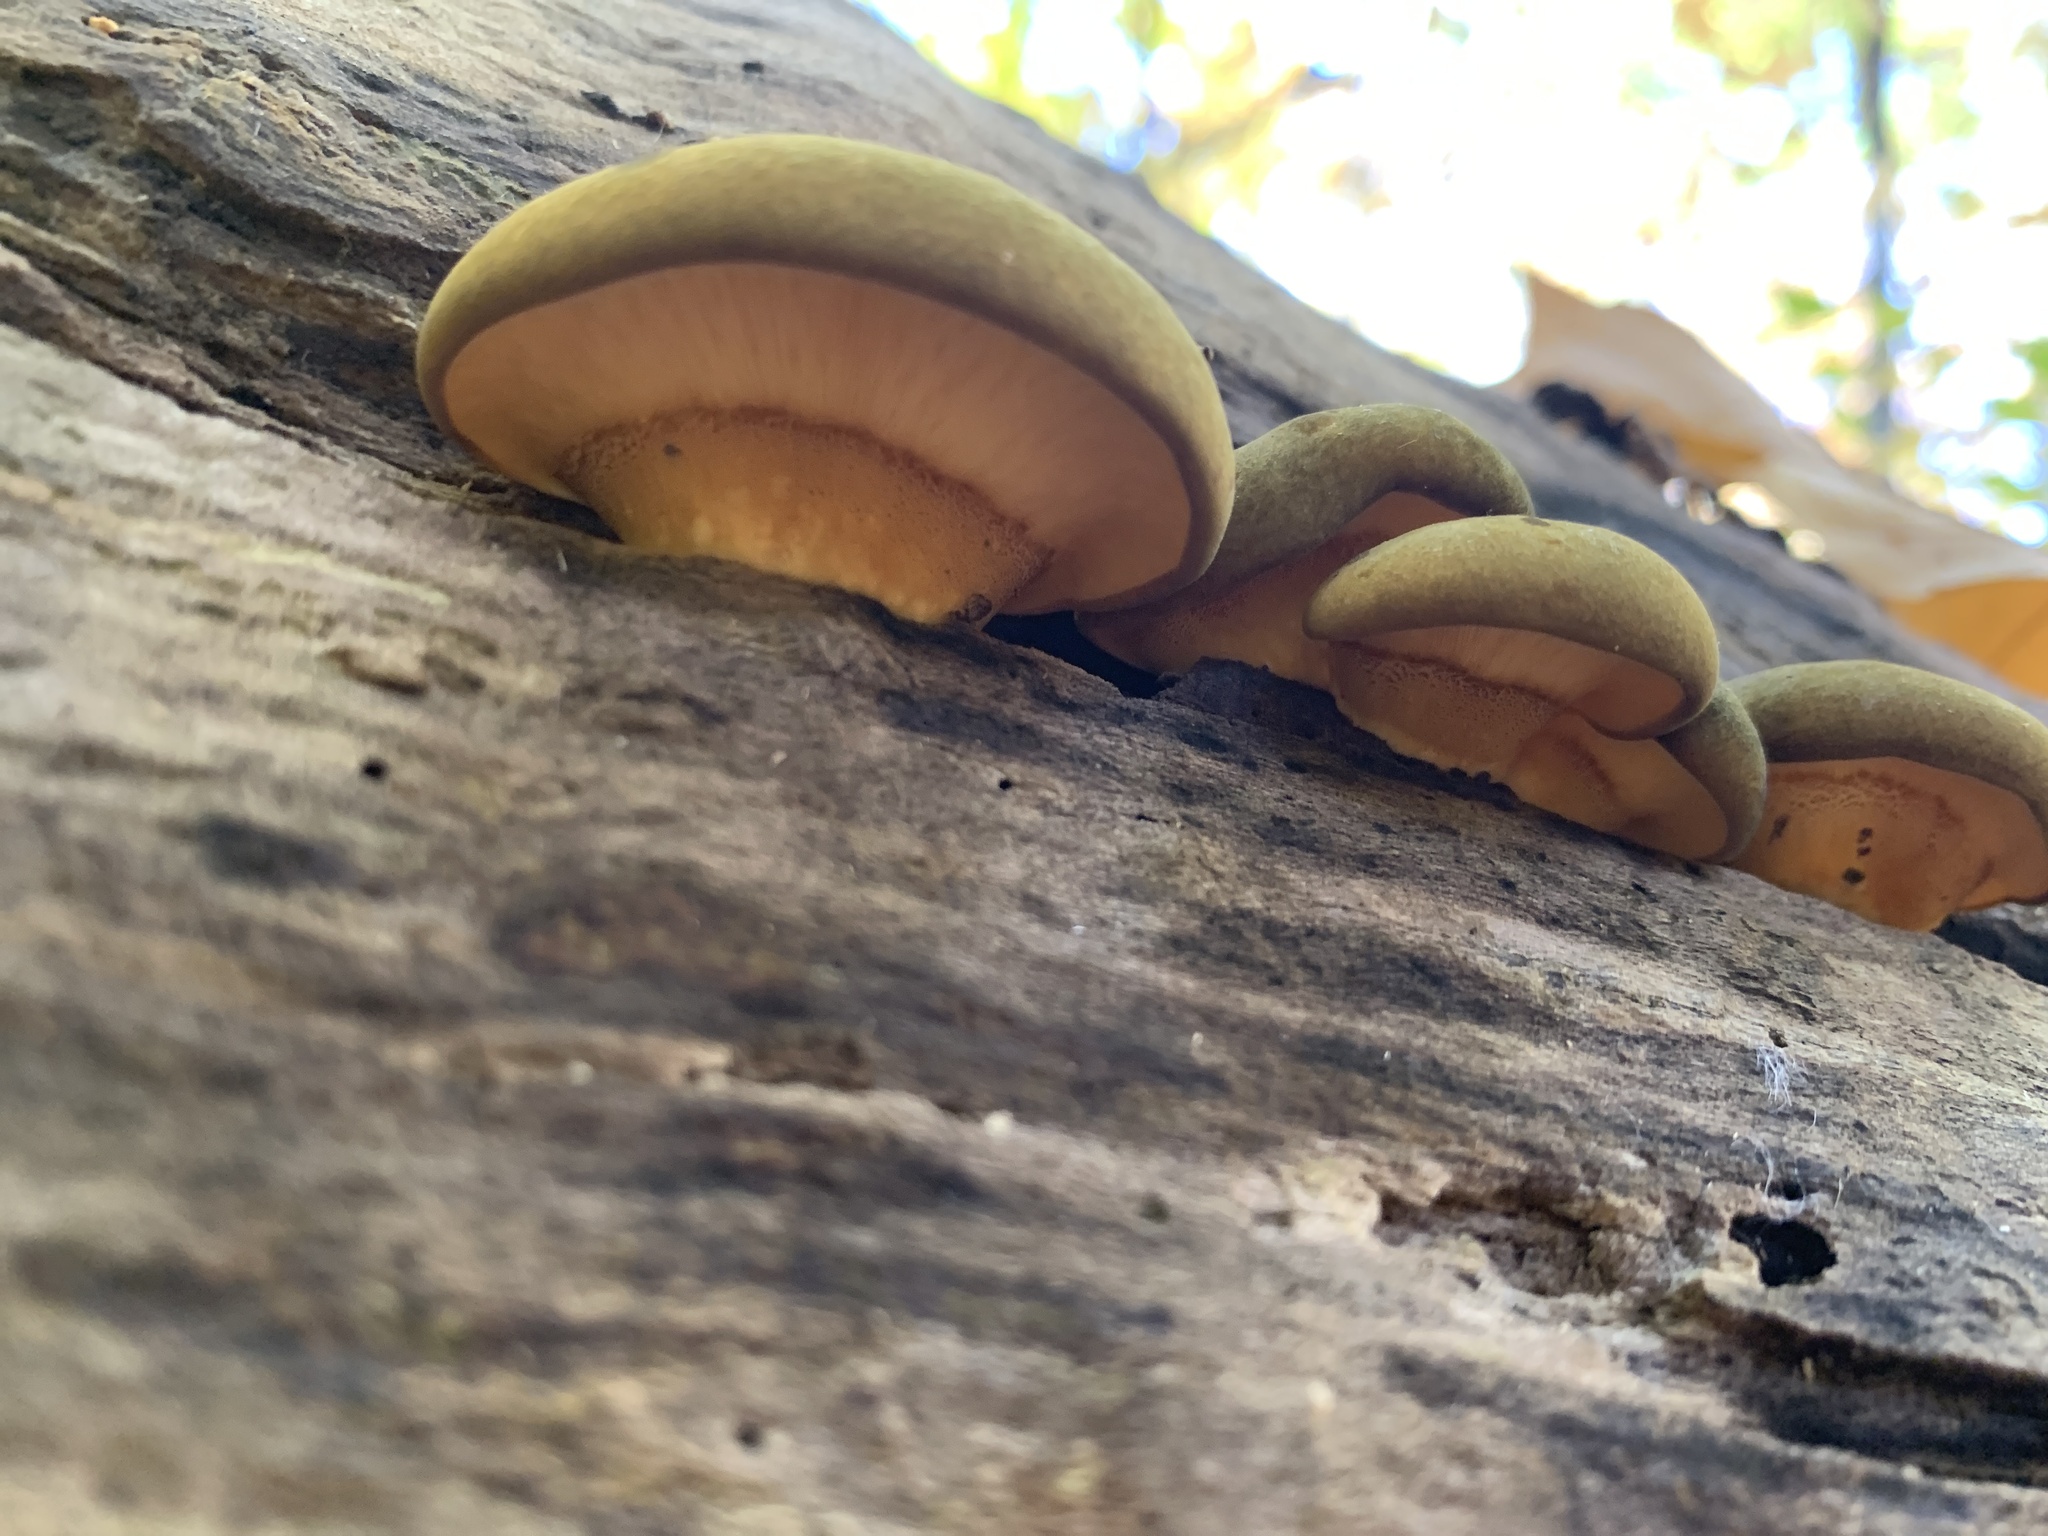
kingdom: Fungi
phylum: Basidiomycota
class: Agaricomycetes
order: Agaricales
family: Sarcomyxaceae
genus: Sarcomyxa
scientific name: Sarcomyxa serotina
